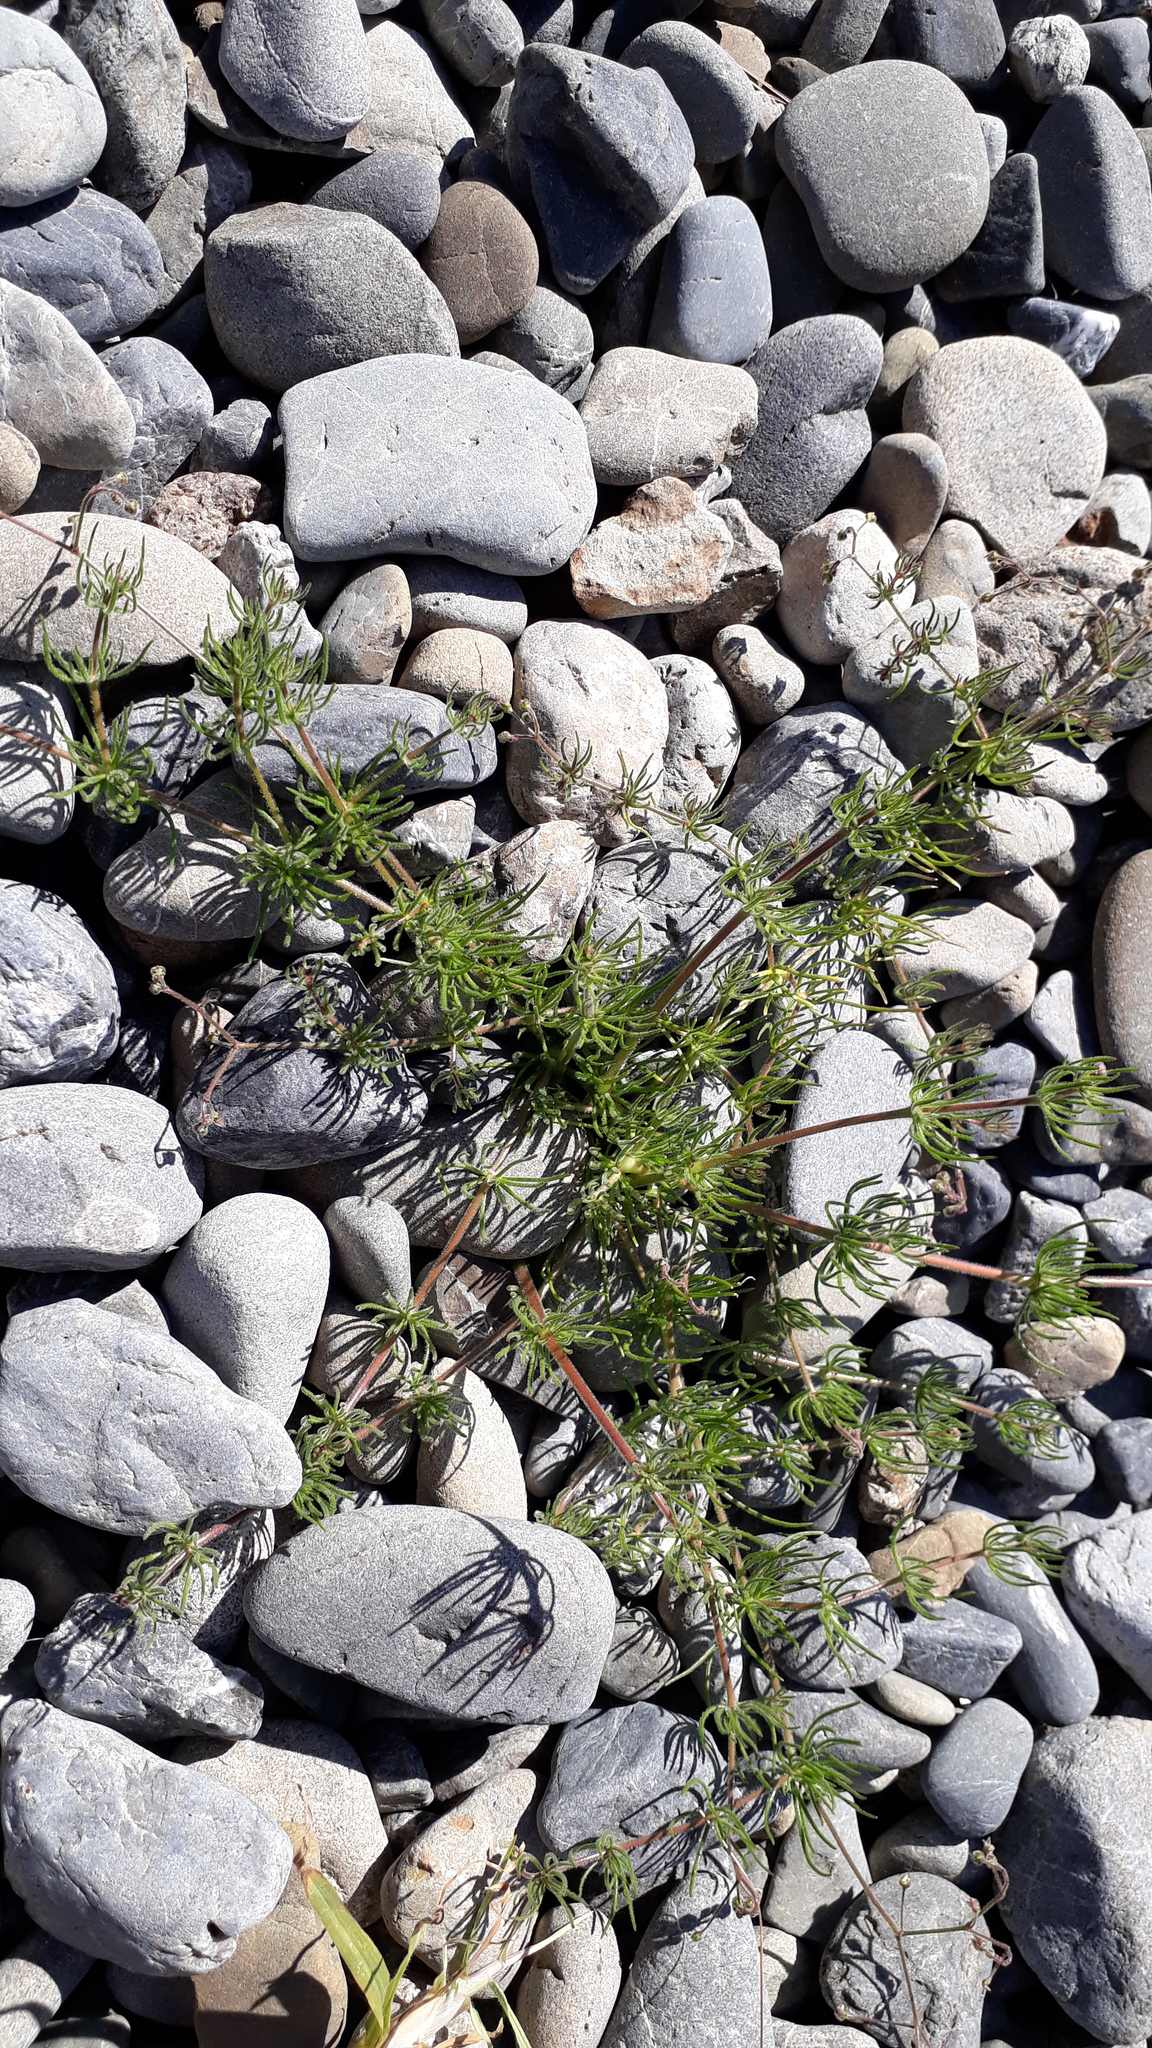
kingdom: Plantae
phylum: Tracheophyta
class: Magnoliopsida
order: Caryophyllales
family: Caryophyllaceae
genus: Spergula
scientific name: Spergula arvensis
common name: Corn spurrey
